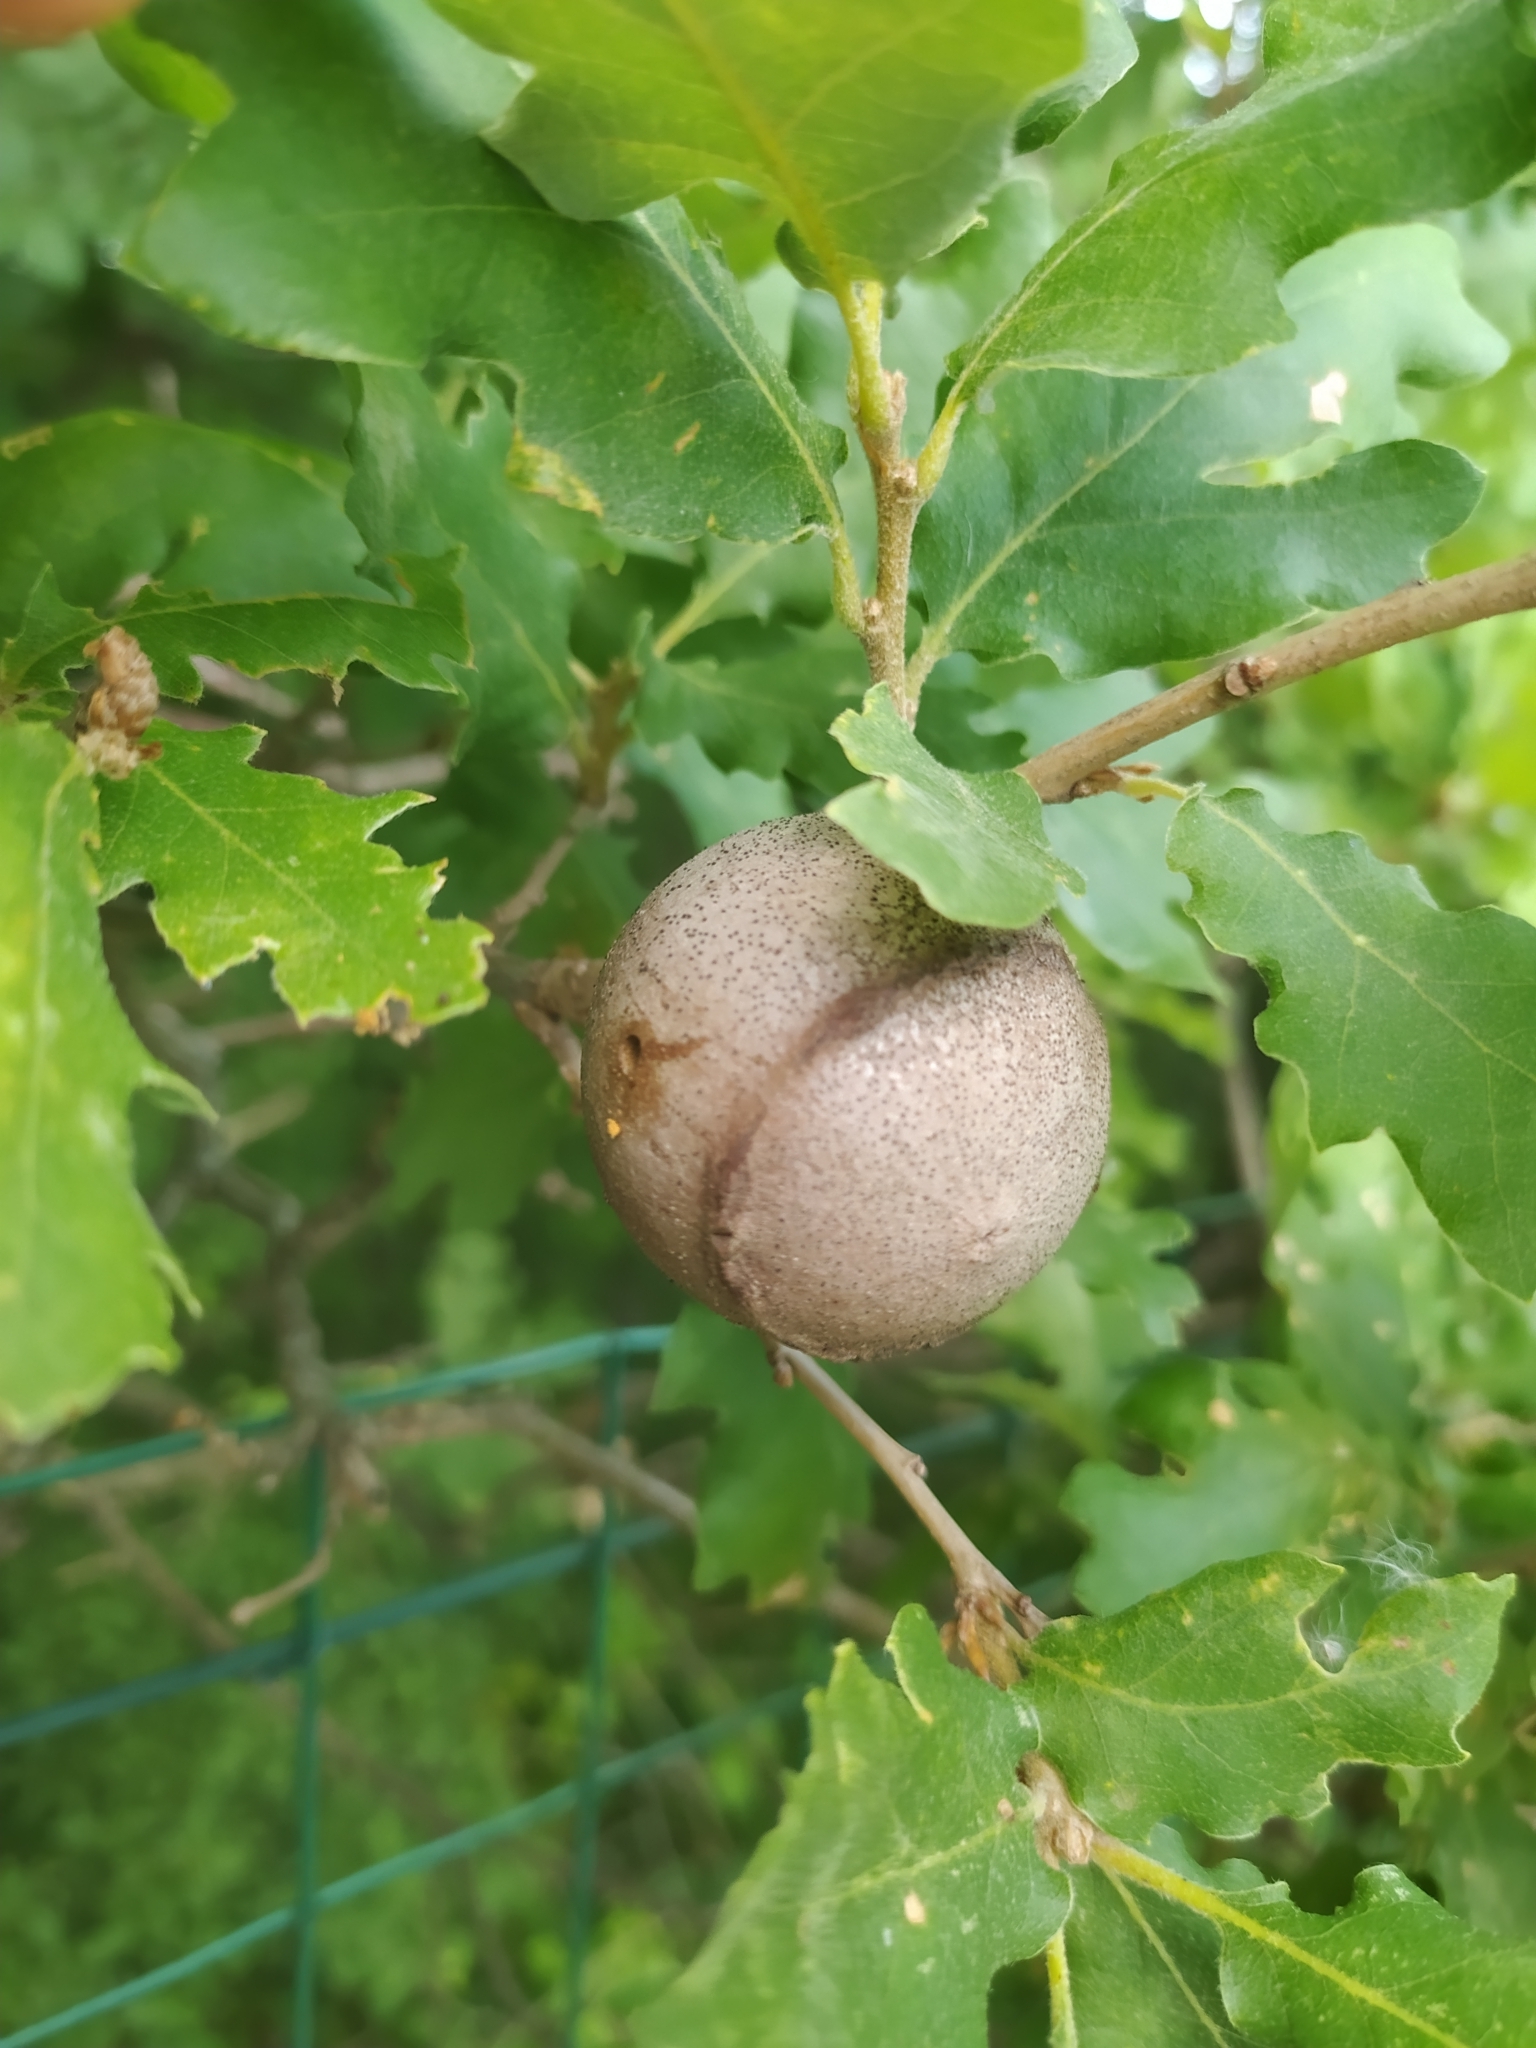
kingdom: Animalia
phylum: Arthropoda
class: Insecta
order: Hymenoptera
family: Cynipidae
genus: Andricus
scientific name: Andricus quercustozae
